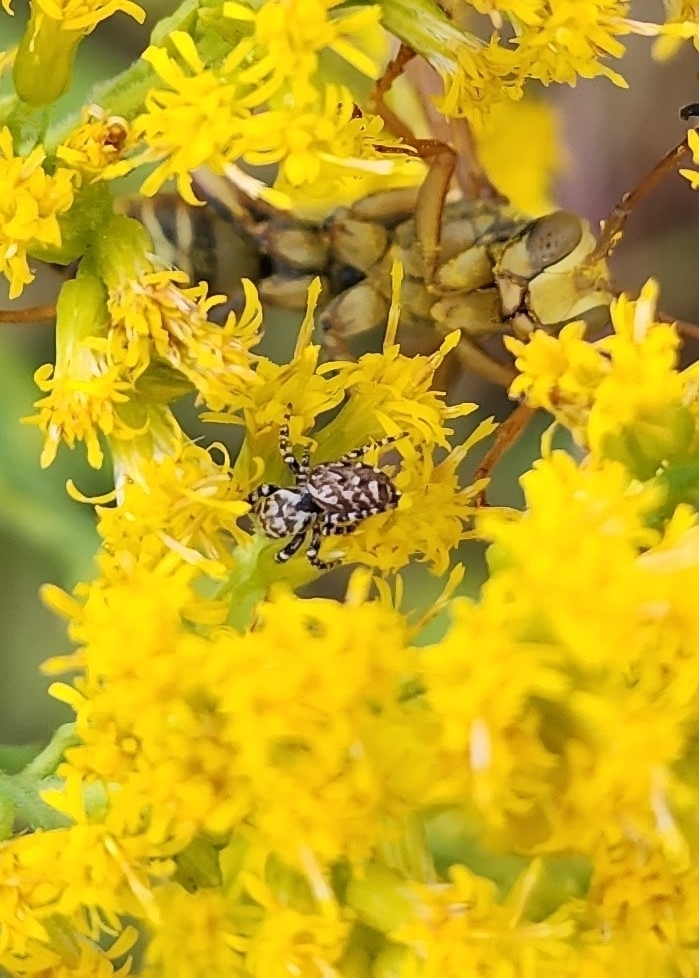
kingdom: Animalia
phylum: Arthropoda
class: Arachnida
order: Araneae
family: Salticidae
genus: Pelegrina
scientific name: Pelegrina galathea
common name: Jumping spiders
